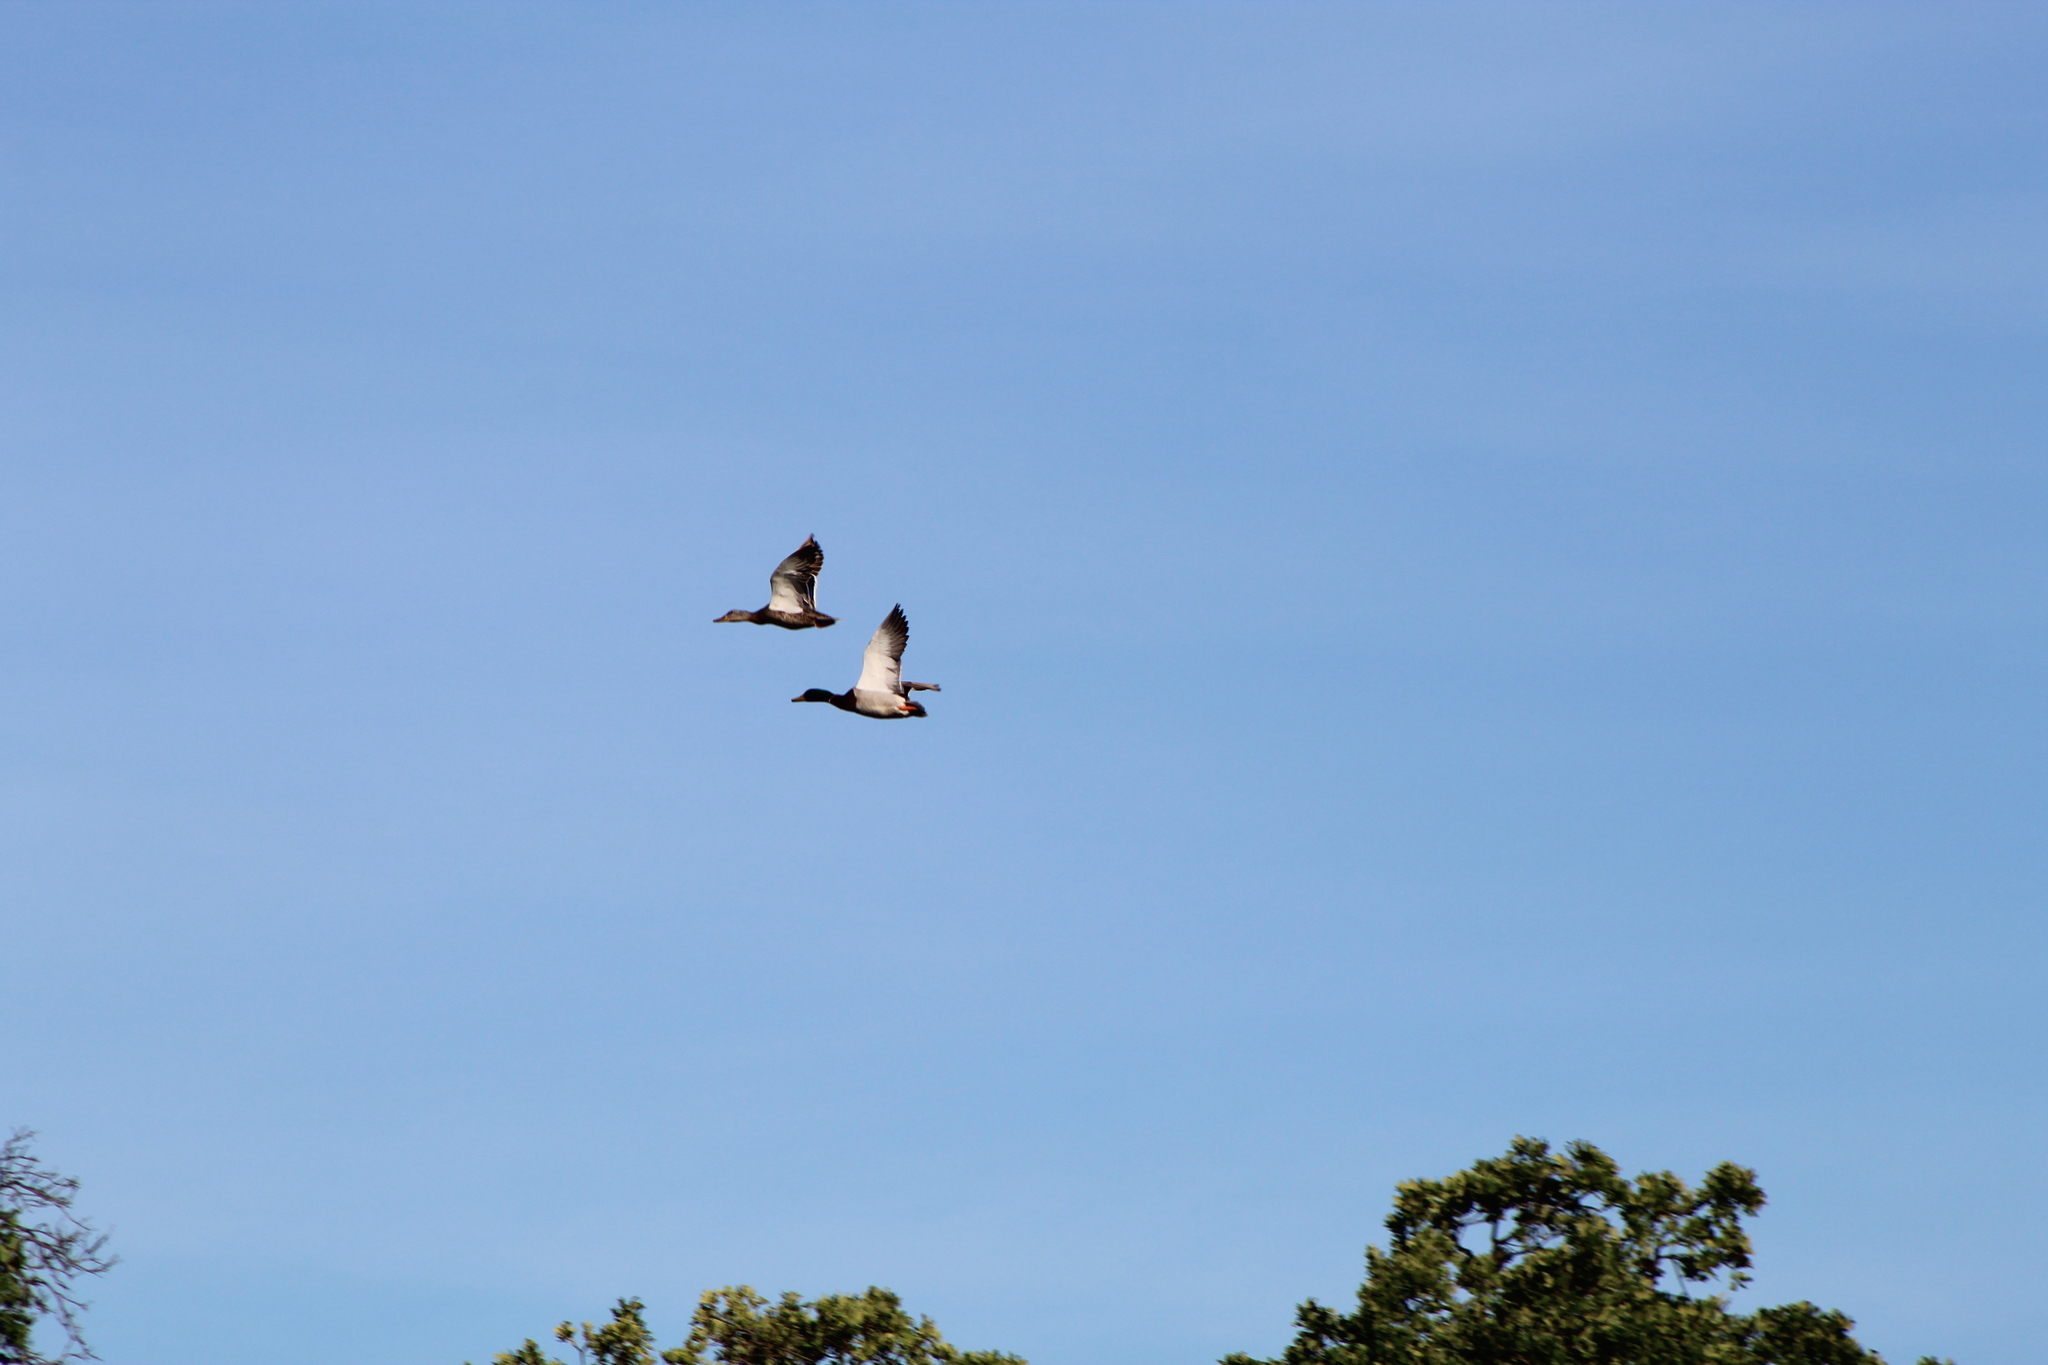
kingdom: Animalia
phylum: Chordata
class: Aves
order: Anseriformes
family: Anatidae
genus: Anas
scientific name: Anas platyrhynchos
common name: Mallard
